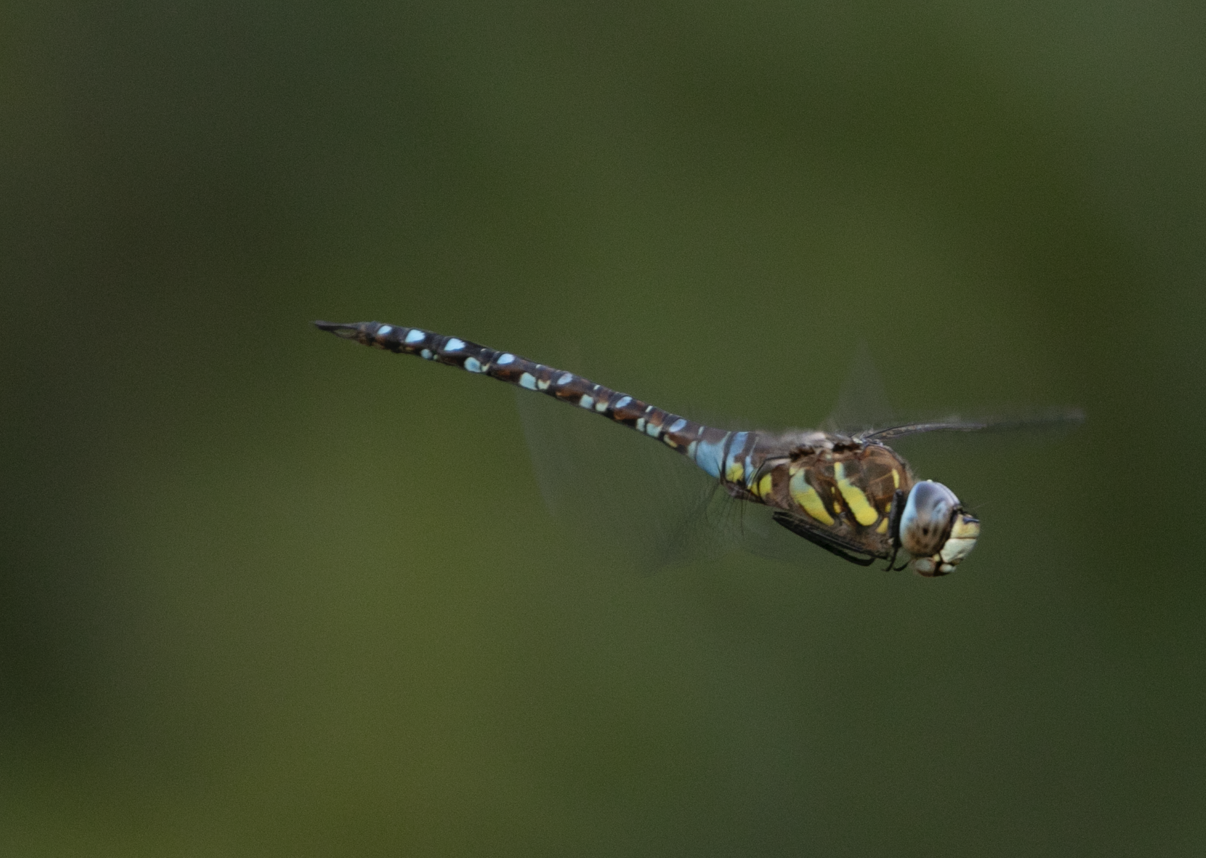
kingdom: Animalia
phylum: Arthropoda
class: Insecta
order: Odonata
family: Aeshnidae
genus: Aeshna
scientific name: Aeshna mixta
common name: Migrant hawker
